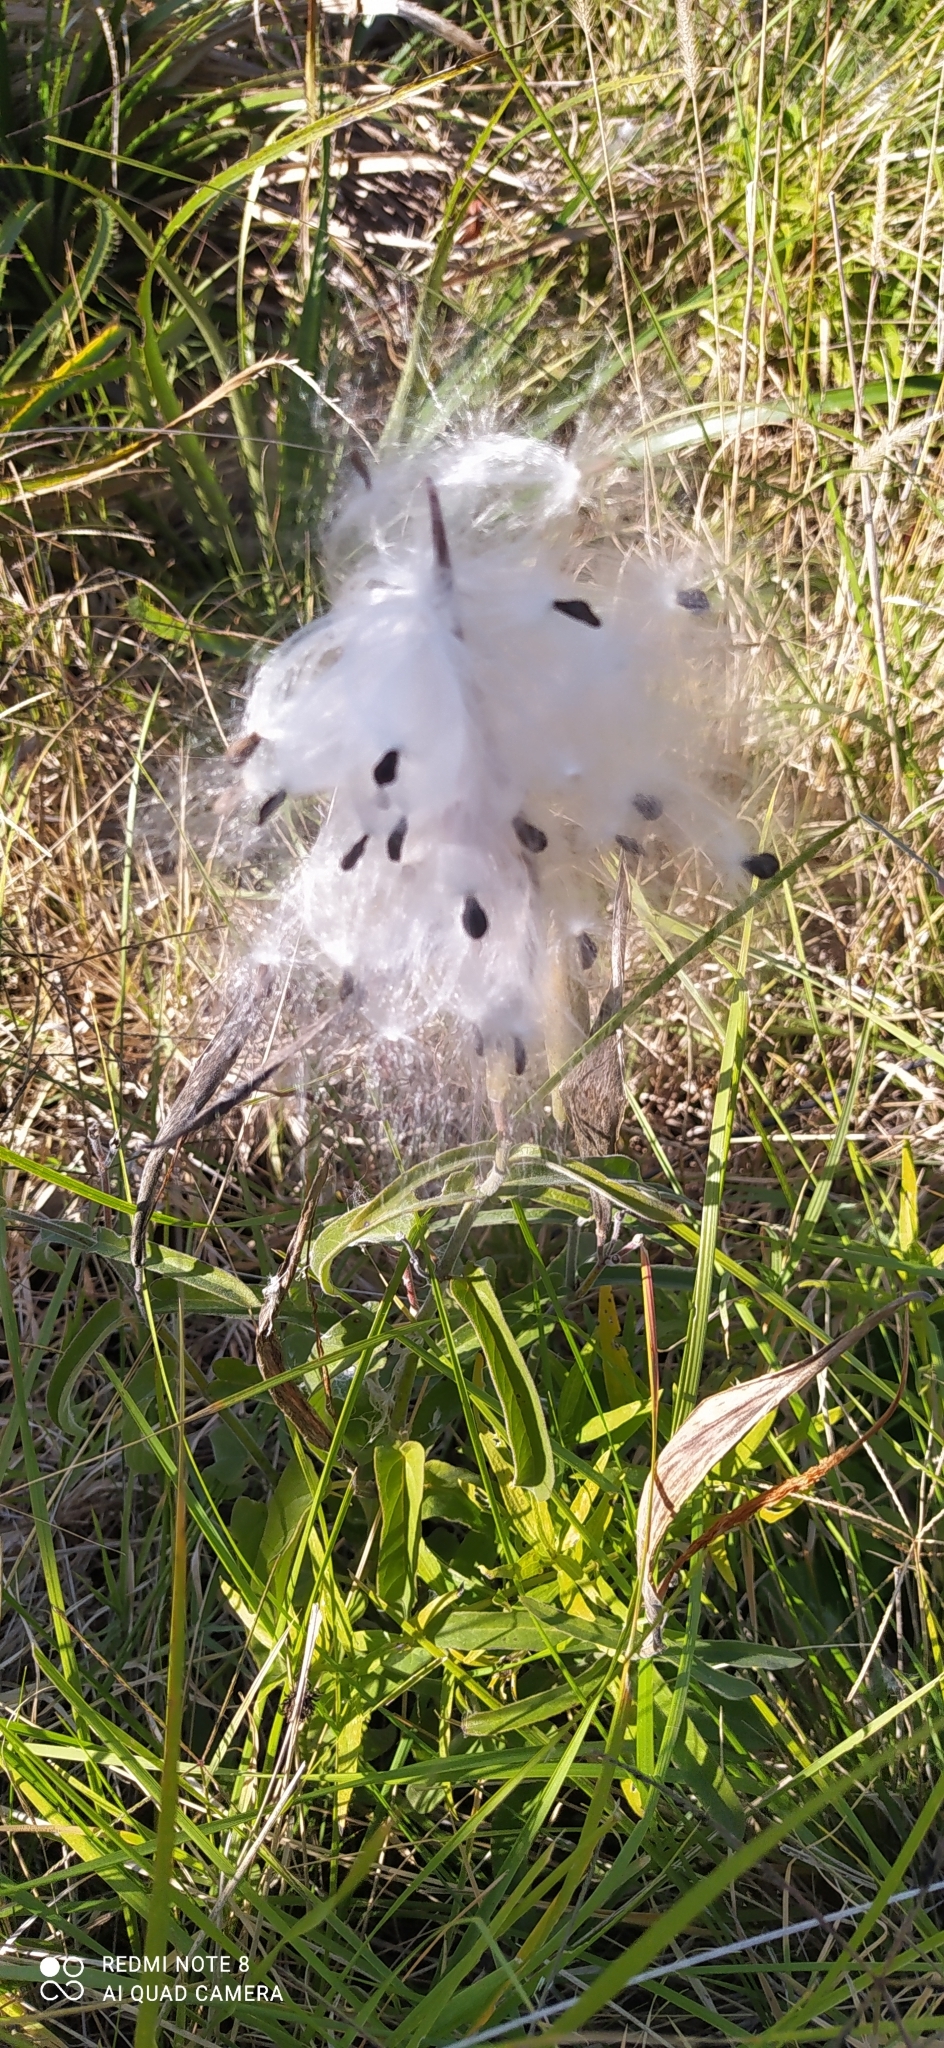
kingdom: Plantae
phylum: Tracheophyta
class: Magnoliopsida
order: Gentianales
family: Apocynaceae
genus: Oxypetalum
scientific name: Oxypetalum solanoides
